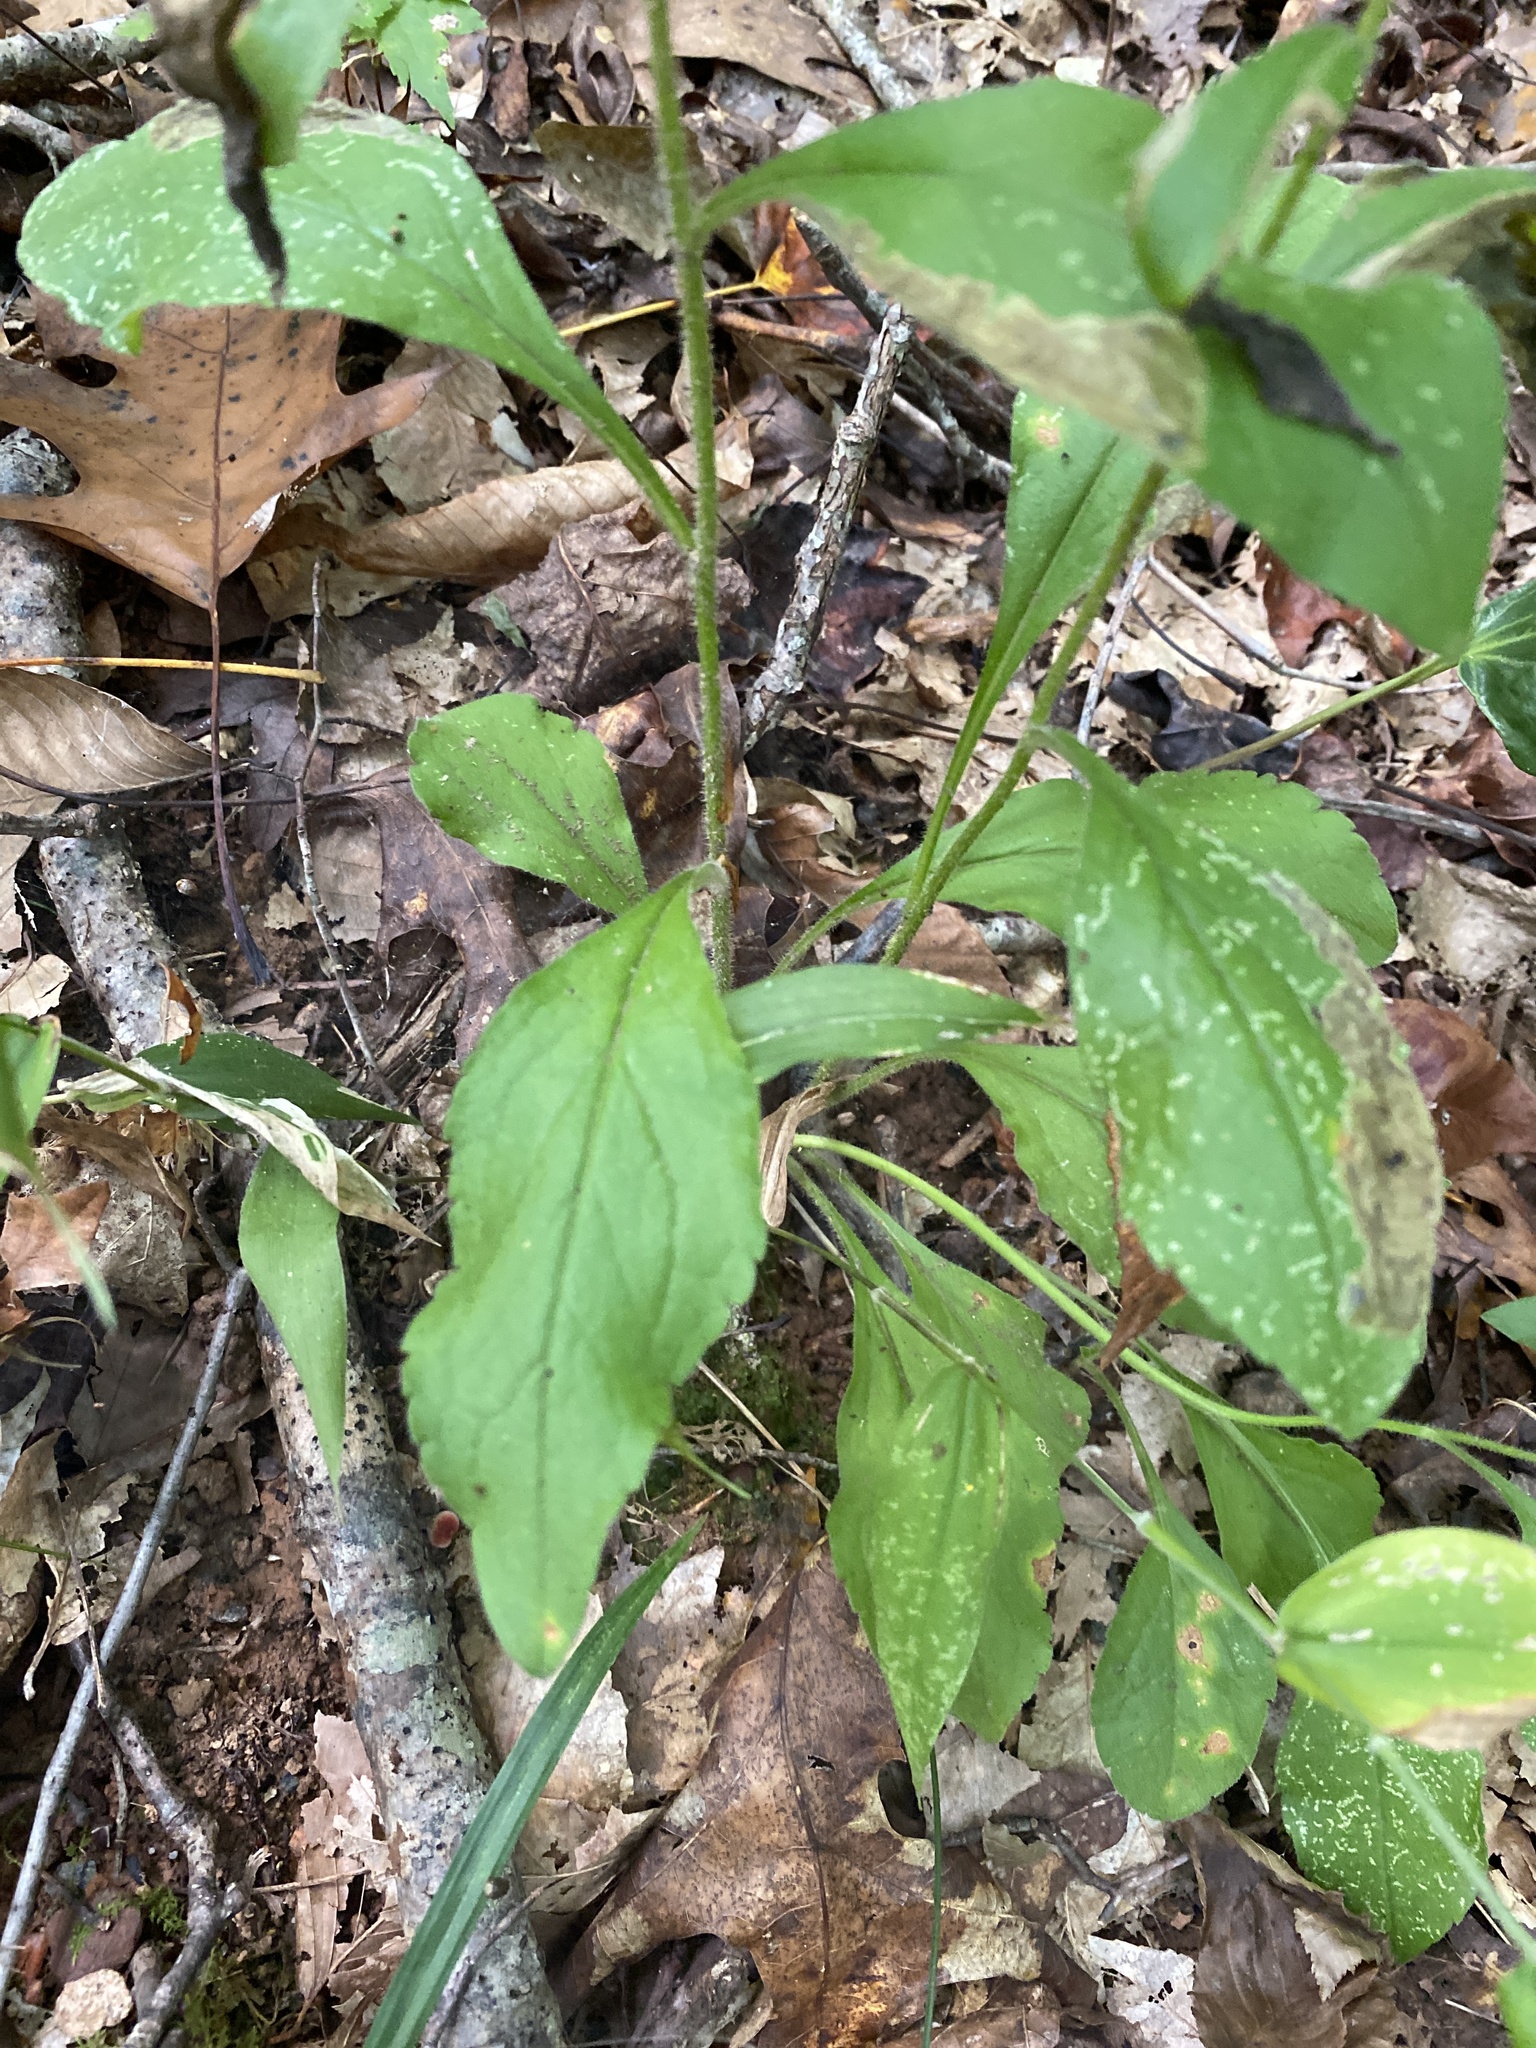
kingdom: Plantae
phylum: Tracheophyta
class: Magnoliopsida
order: Asterales
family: Asteraceae
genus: Solidago
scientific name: Solidago bicolor
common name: Silverrod
